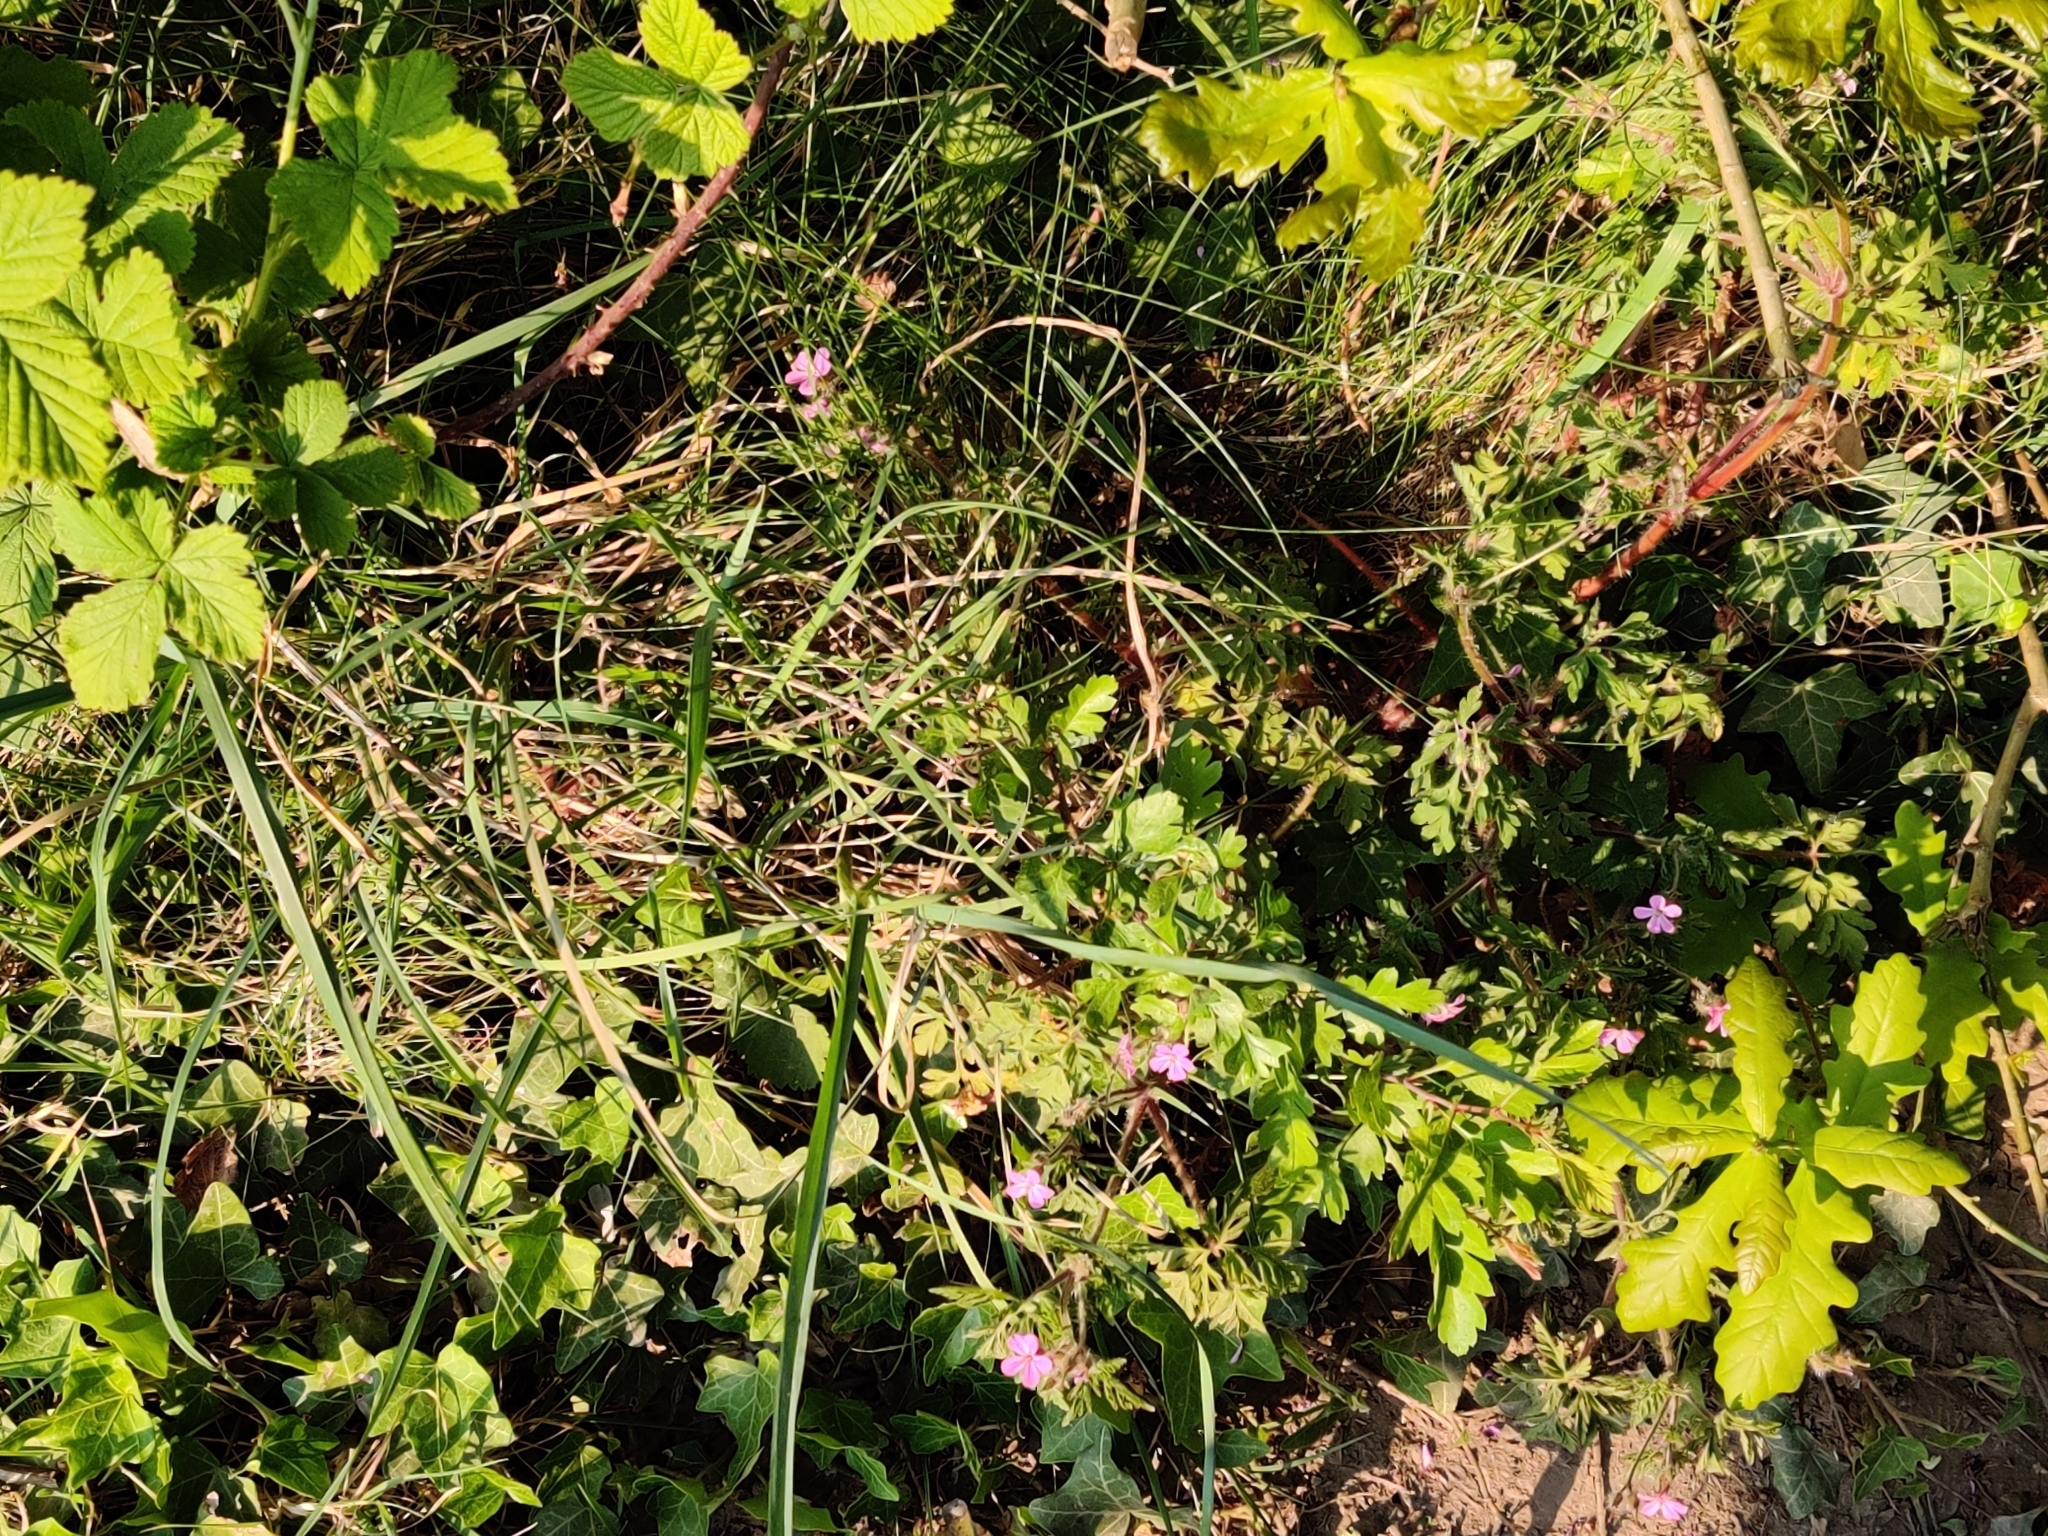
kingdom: Plantae
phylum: Tracheophyta
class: Magnoliopsida
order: Geraniales
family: Geraniaceae
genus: Geranium
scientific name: Geranium robertianum
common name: Herb-robert
